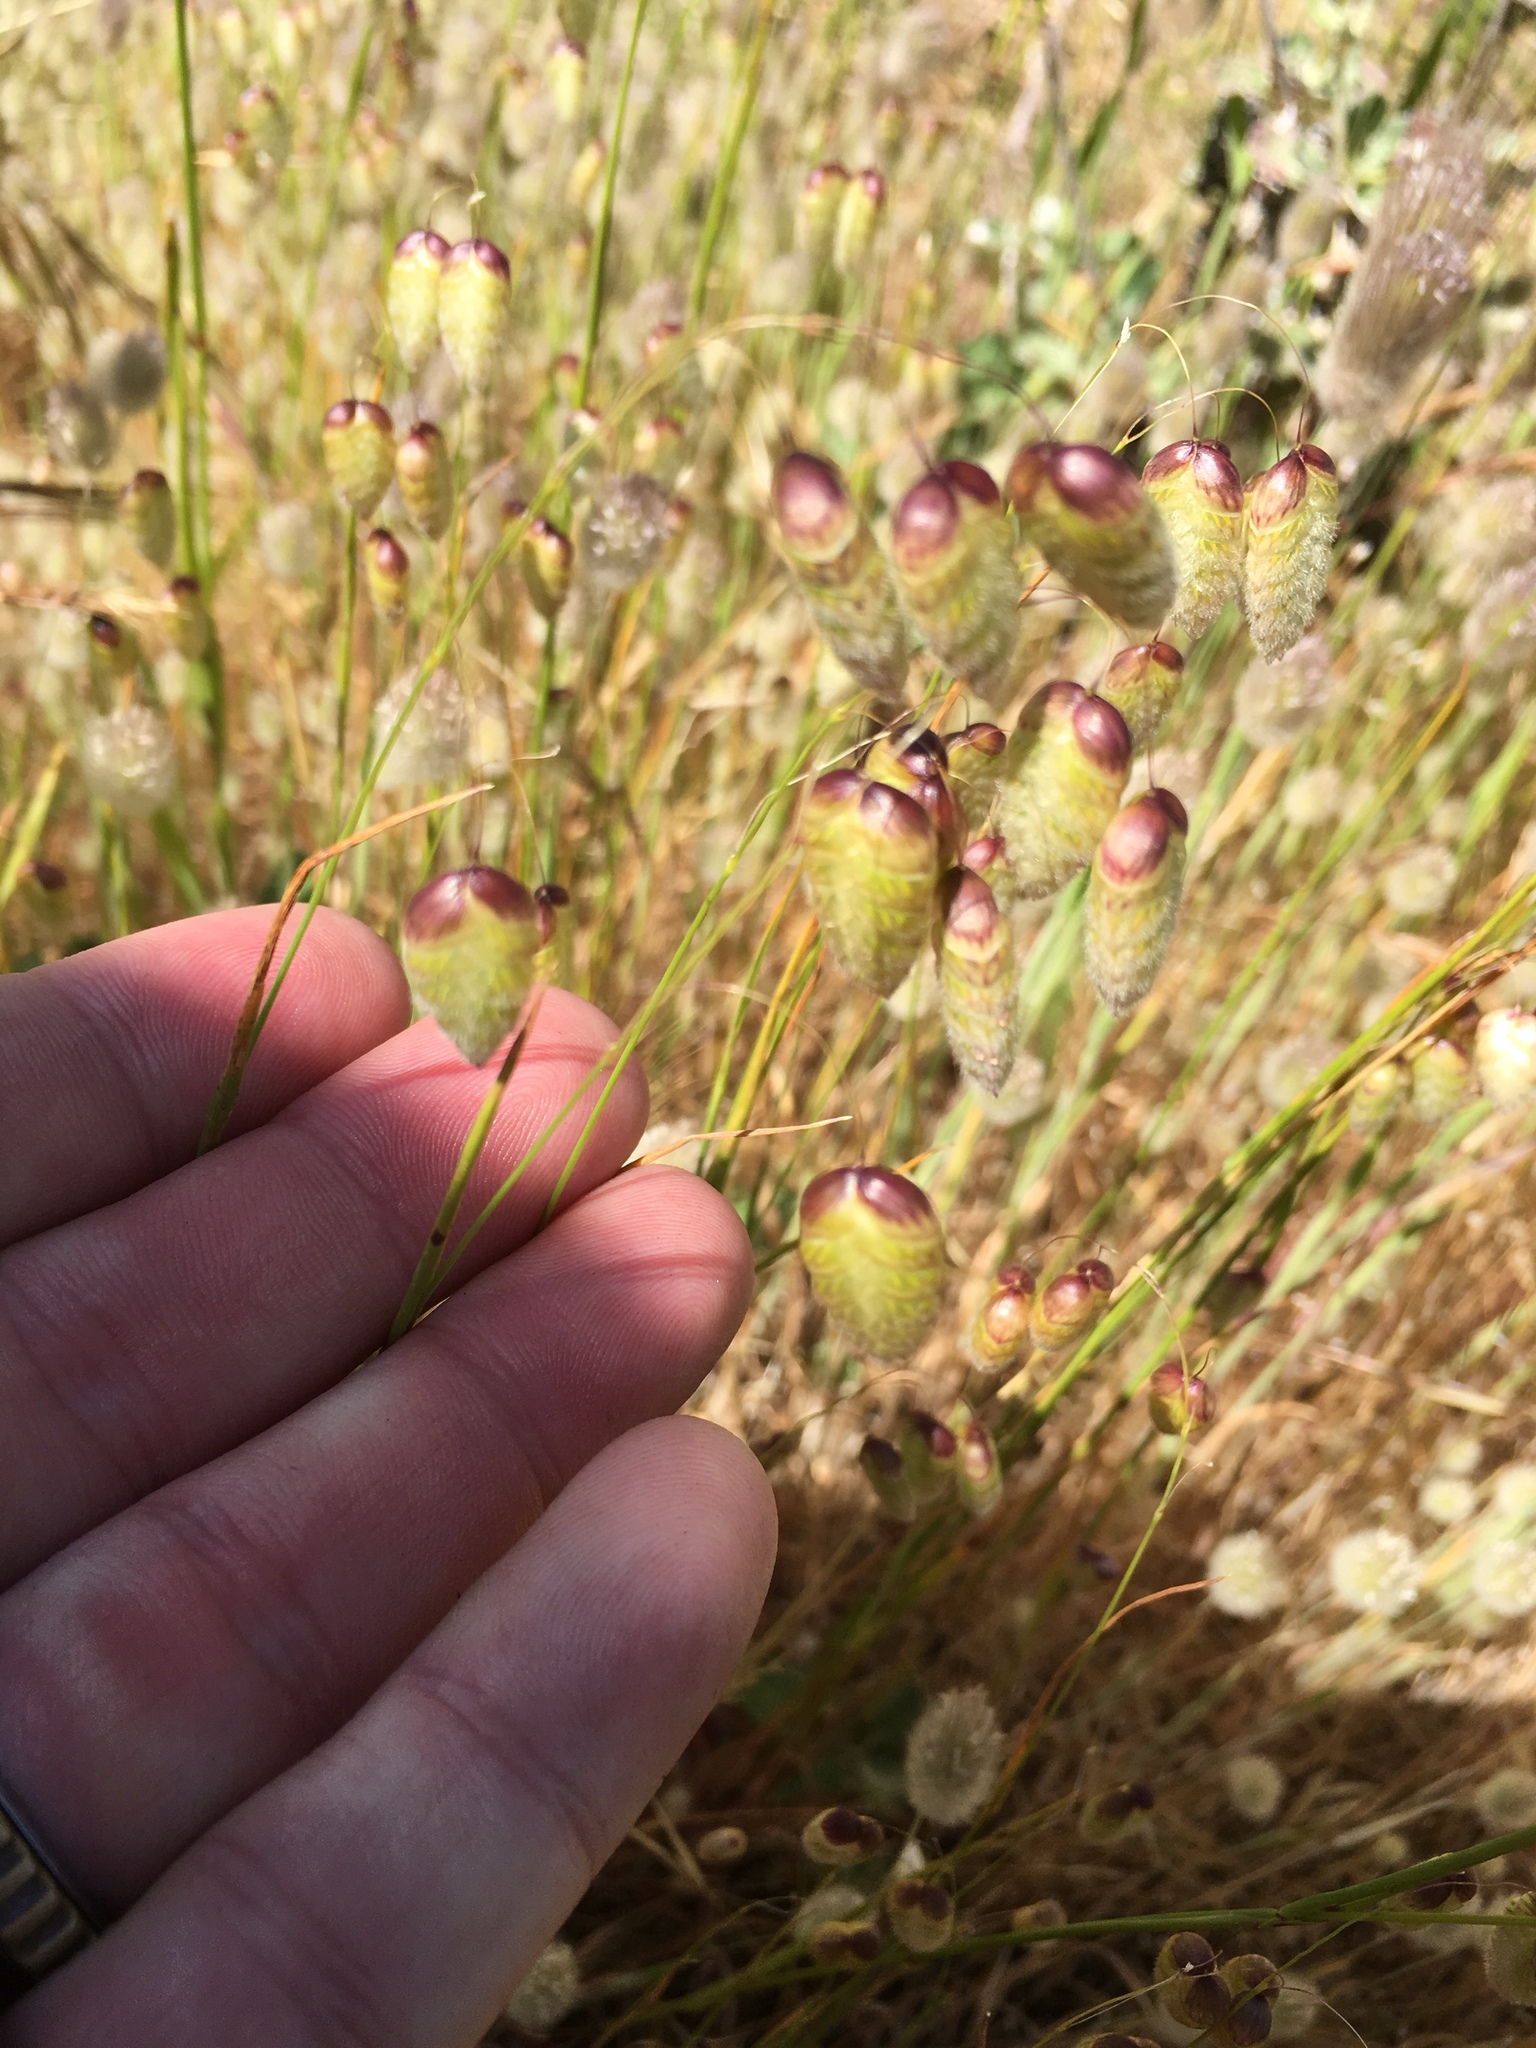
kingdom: Plantae
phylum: Tracheophyta
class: Liliopsida
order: Poales
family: Poaceae
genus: Briza
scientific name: Briza maxima
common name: Big quakinggrass
